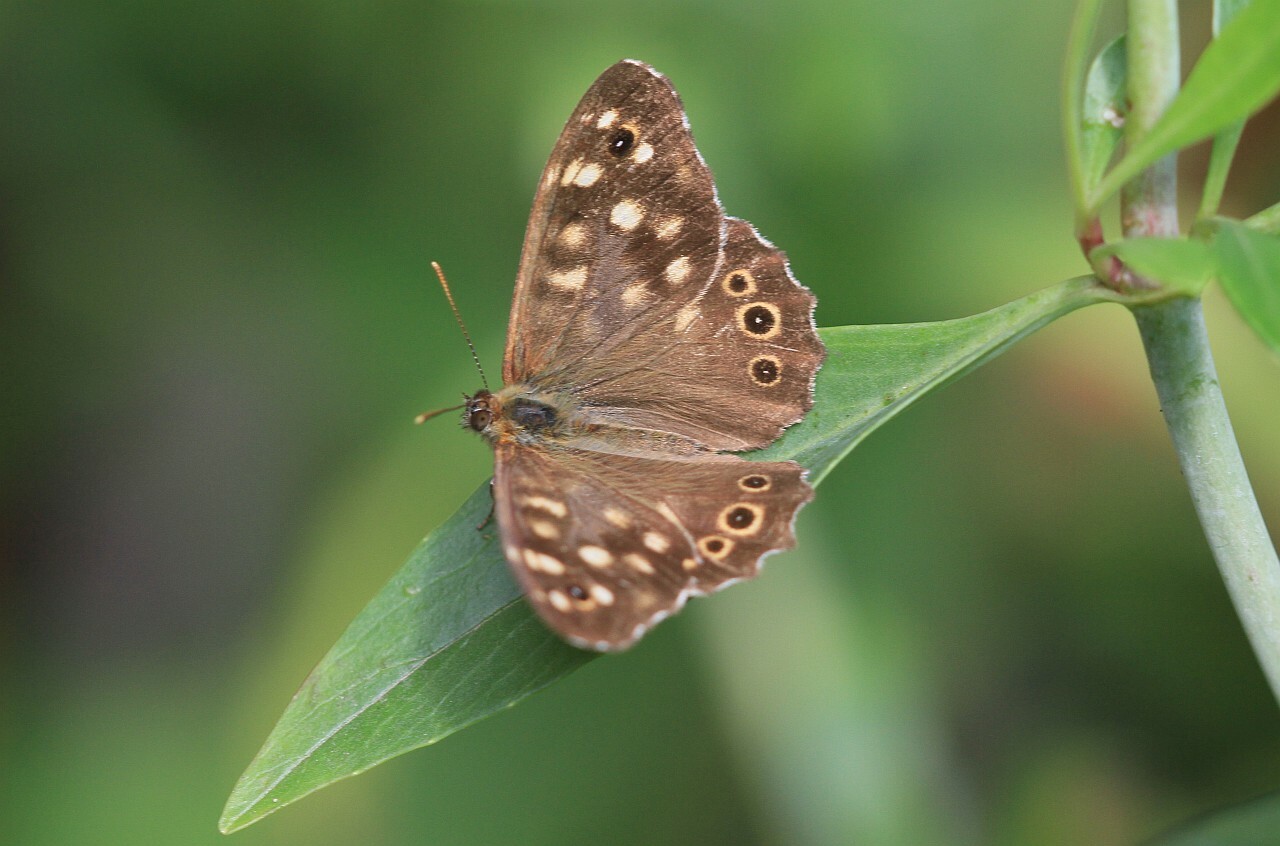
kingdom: Animalia
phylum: Arthropoda
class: Insecta
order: Lepidoptera
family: Nymphalidae
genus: Pararge
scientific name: Pararge aegeria
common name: Speckled wood
